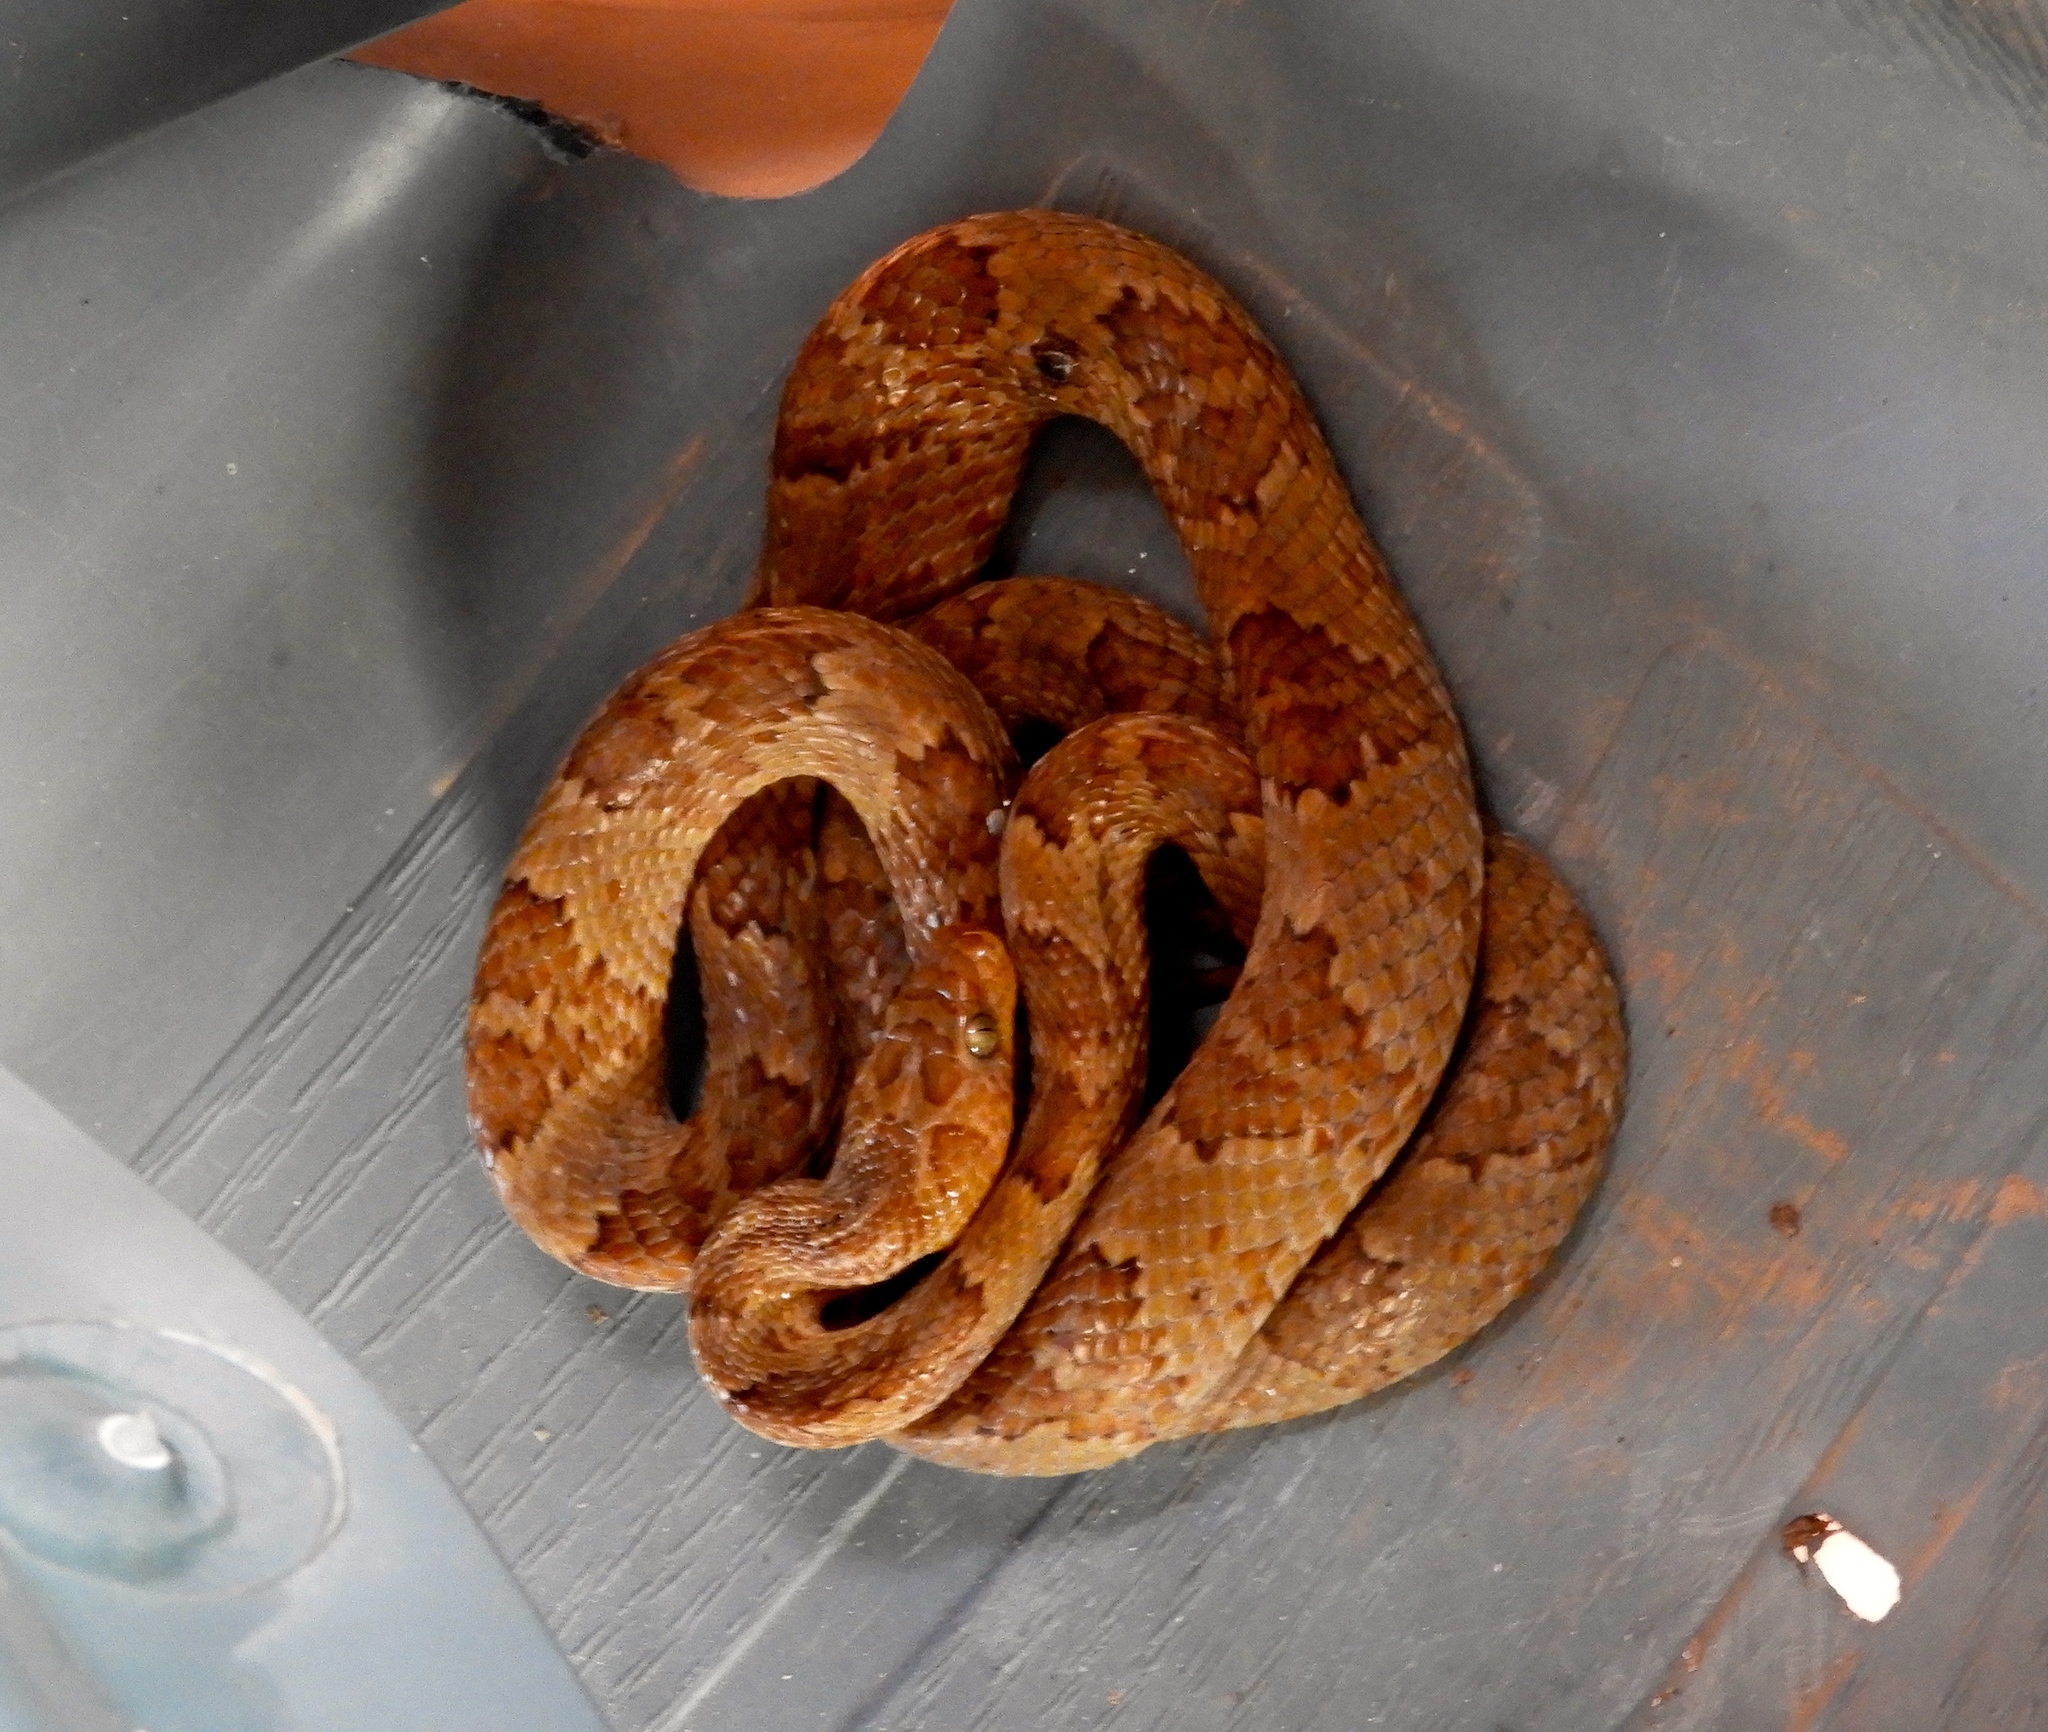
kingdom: Animalia
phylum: Chordata
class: Squamata
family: Colubridae
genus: Trimorphodon
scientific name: Trimorphodon paucimaculatus
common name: Sinaloan lyresnake
